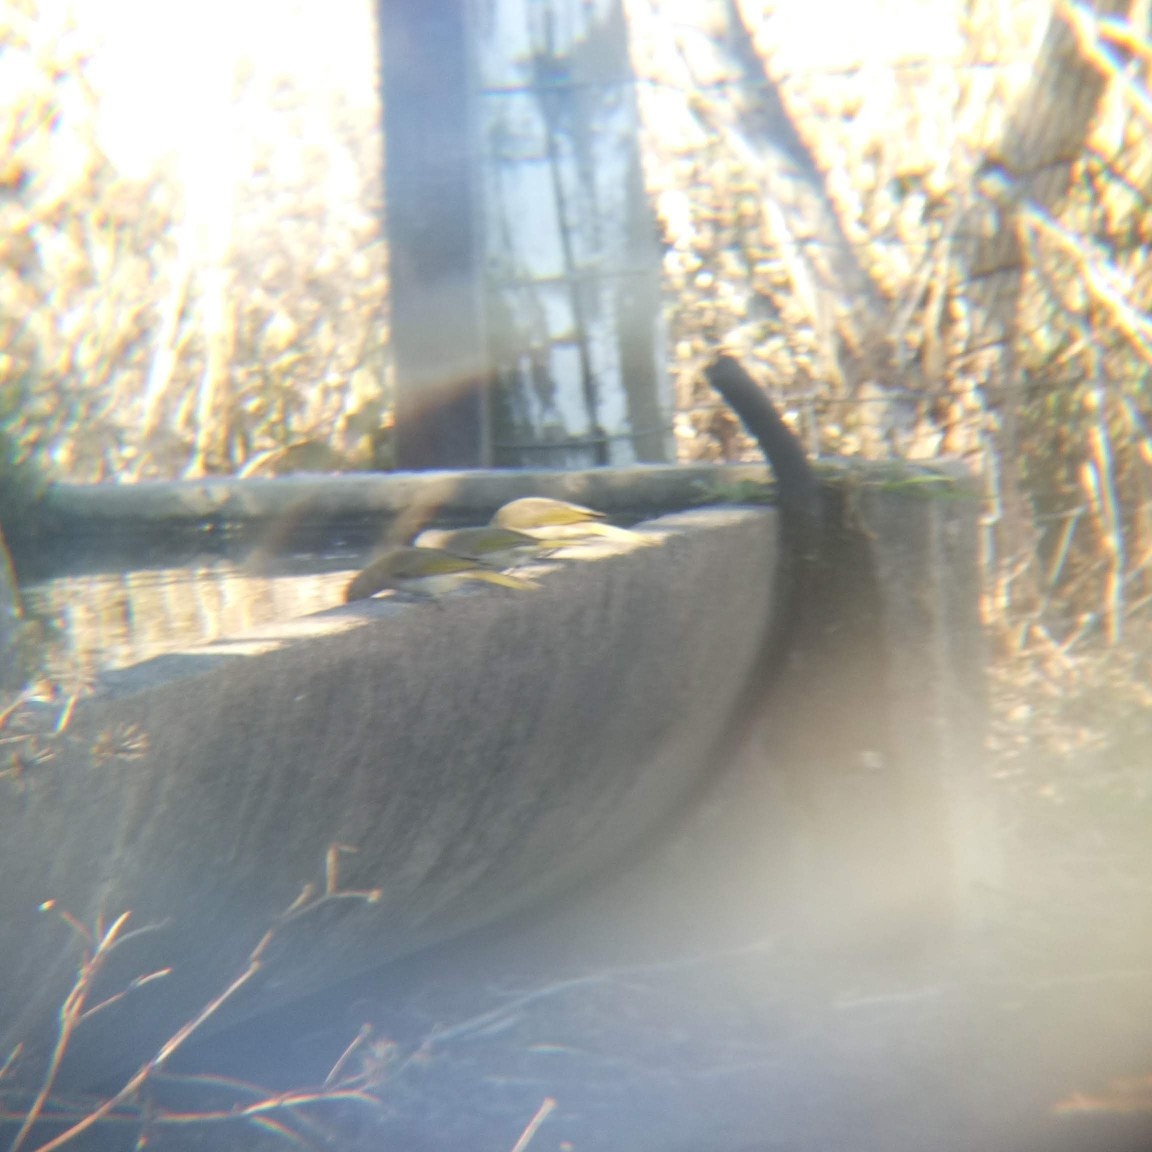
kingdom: Animalia
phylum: Chordata
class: Aves
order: Passeriformes
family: Meliphagidae
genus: Lichmera
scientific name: Lichmera indistincta
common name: Brown honeyeater
